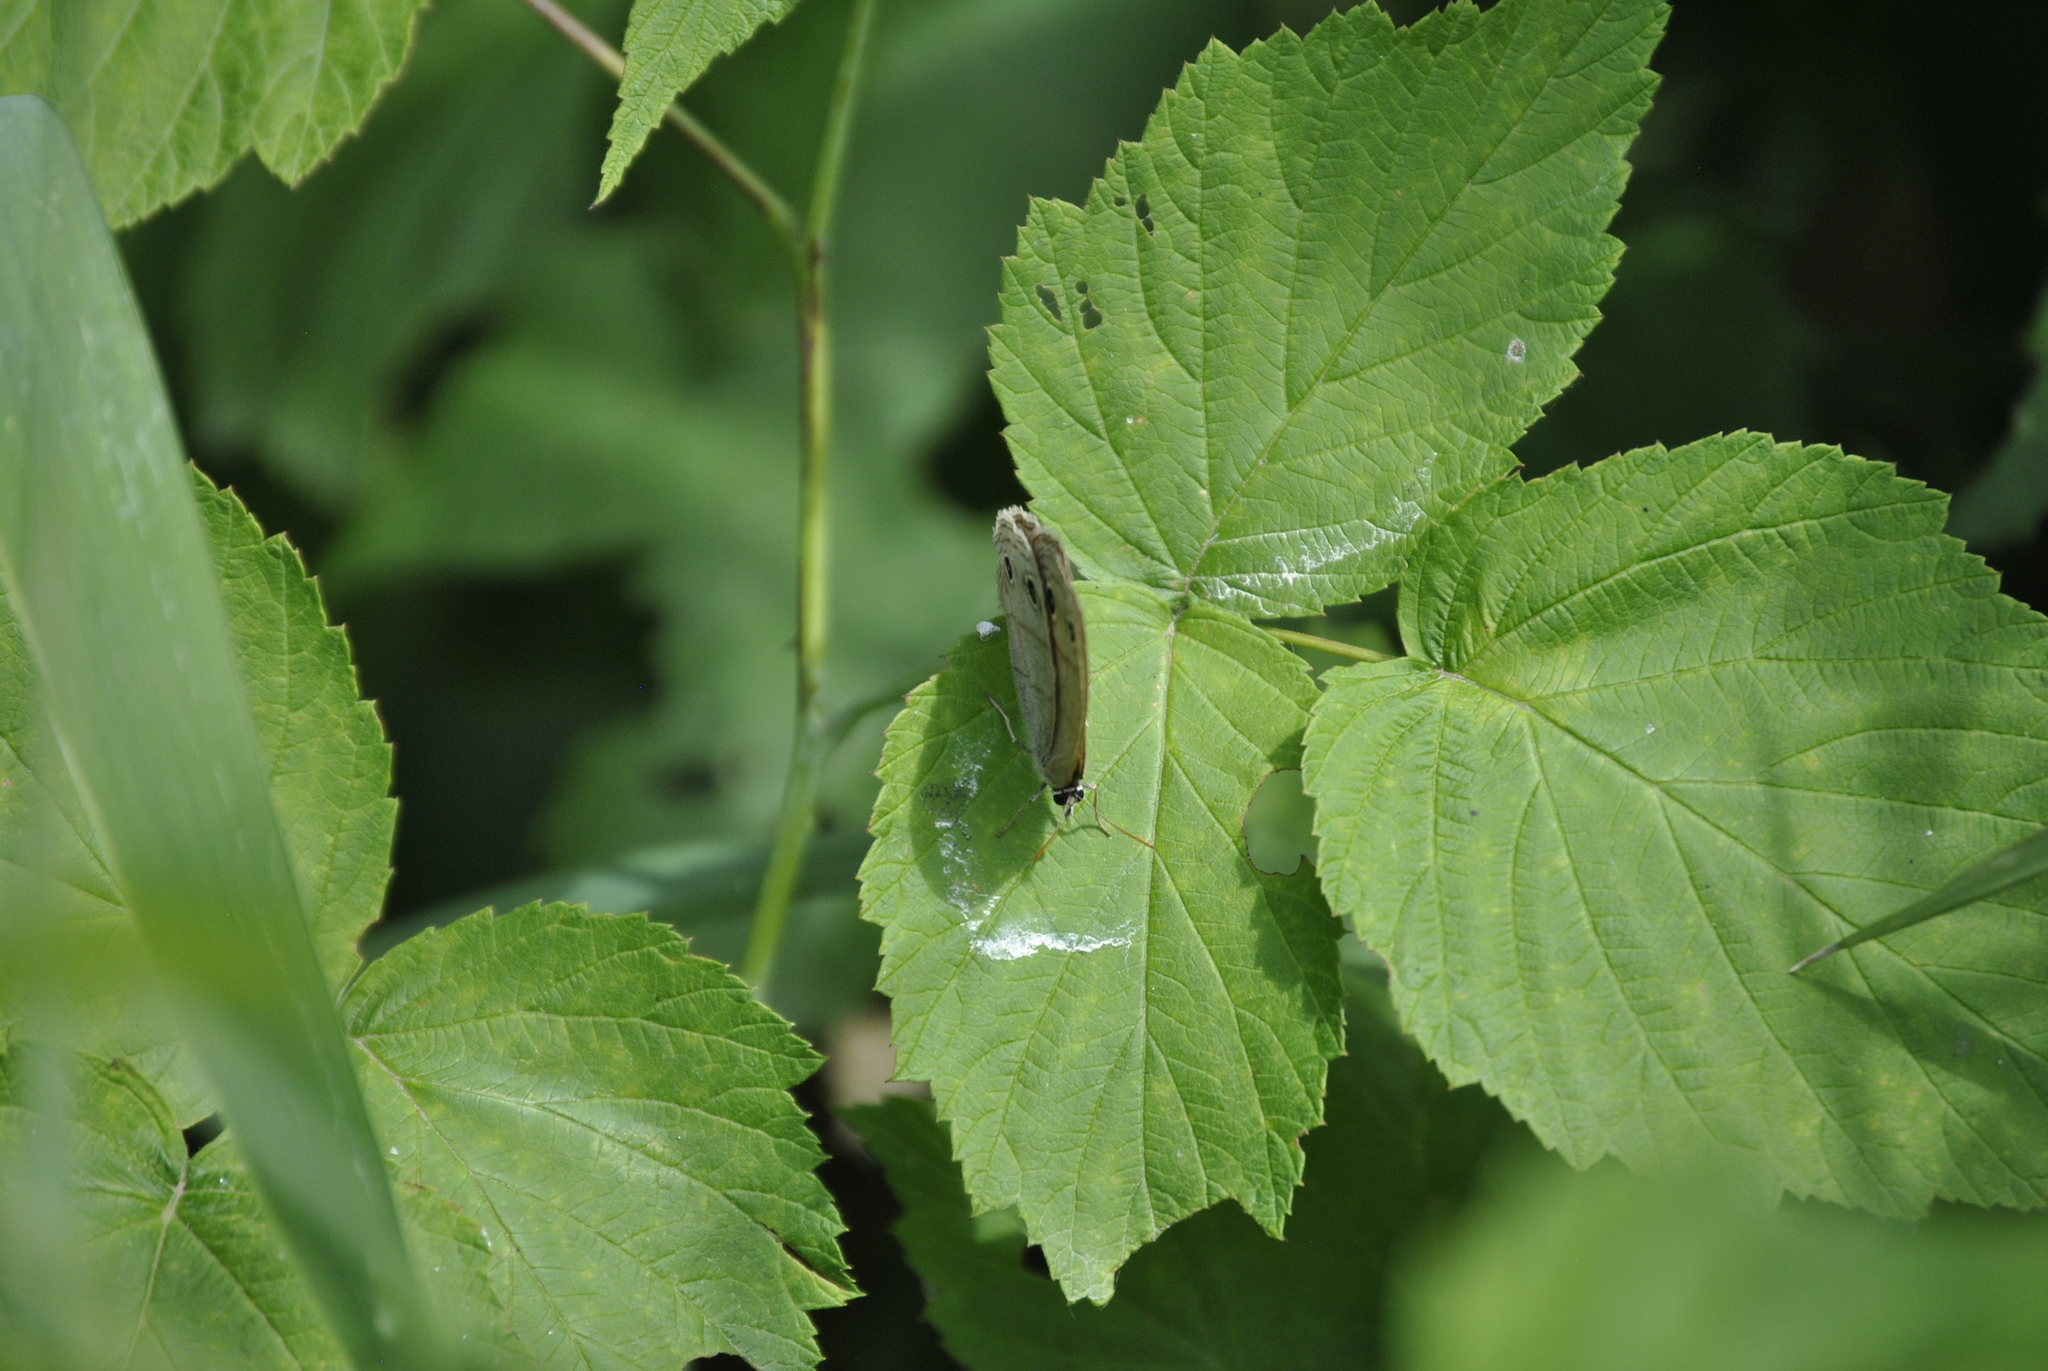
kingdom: Animalia
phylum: Arthropoda
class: Insecta
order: Lepidoptera
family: Nymphalidae
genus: Euptychia
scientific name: Euptychia cymela
